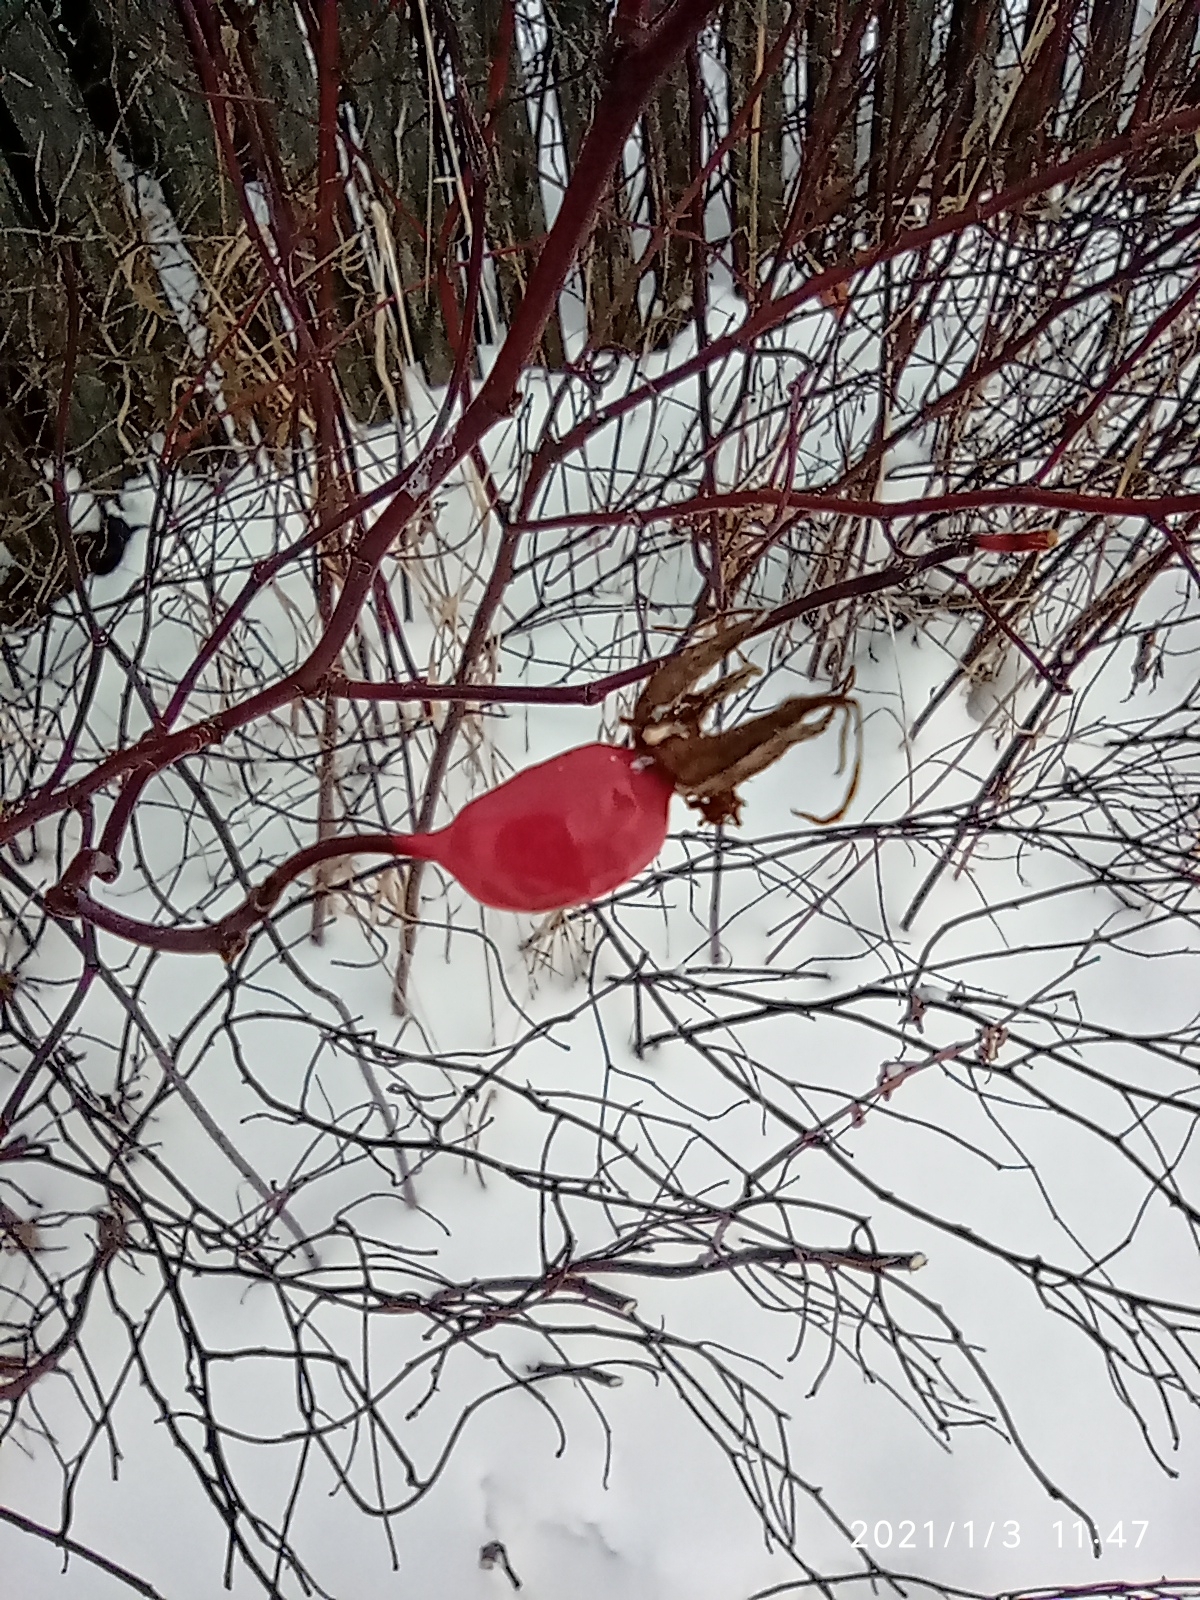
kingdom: Plantae
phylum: Tracheophyta
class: Magnoliopsida
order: Rosales
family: Rosaceae
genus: Rosa
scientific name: Rosa
